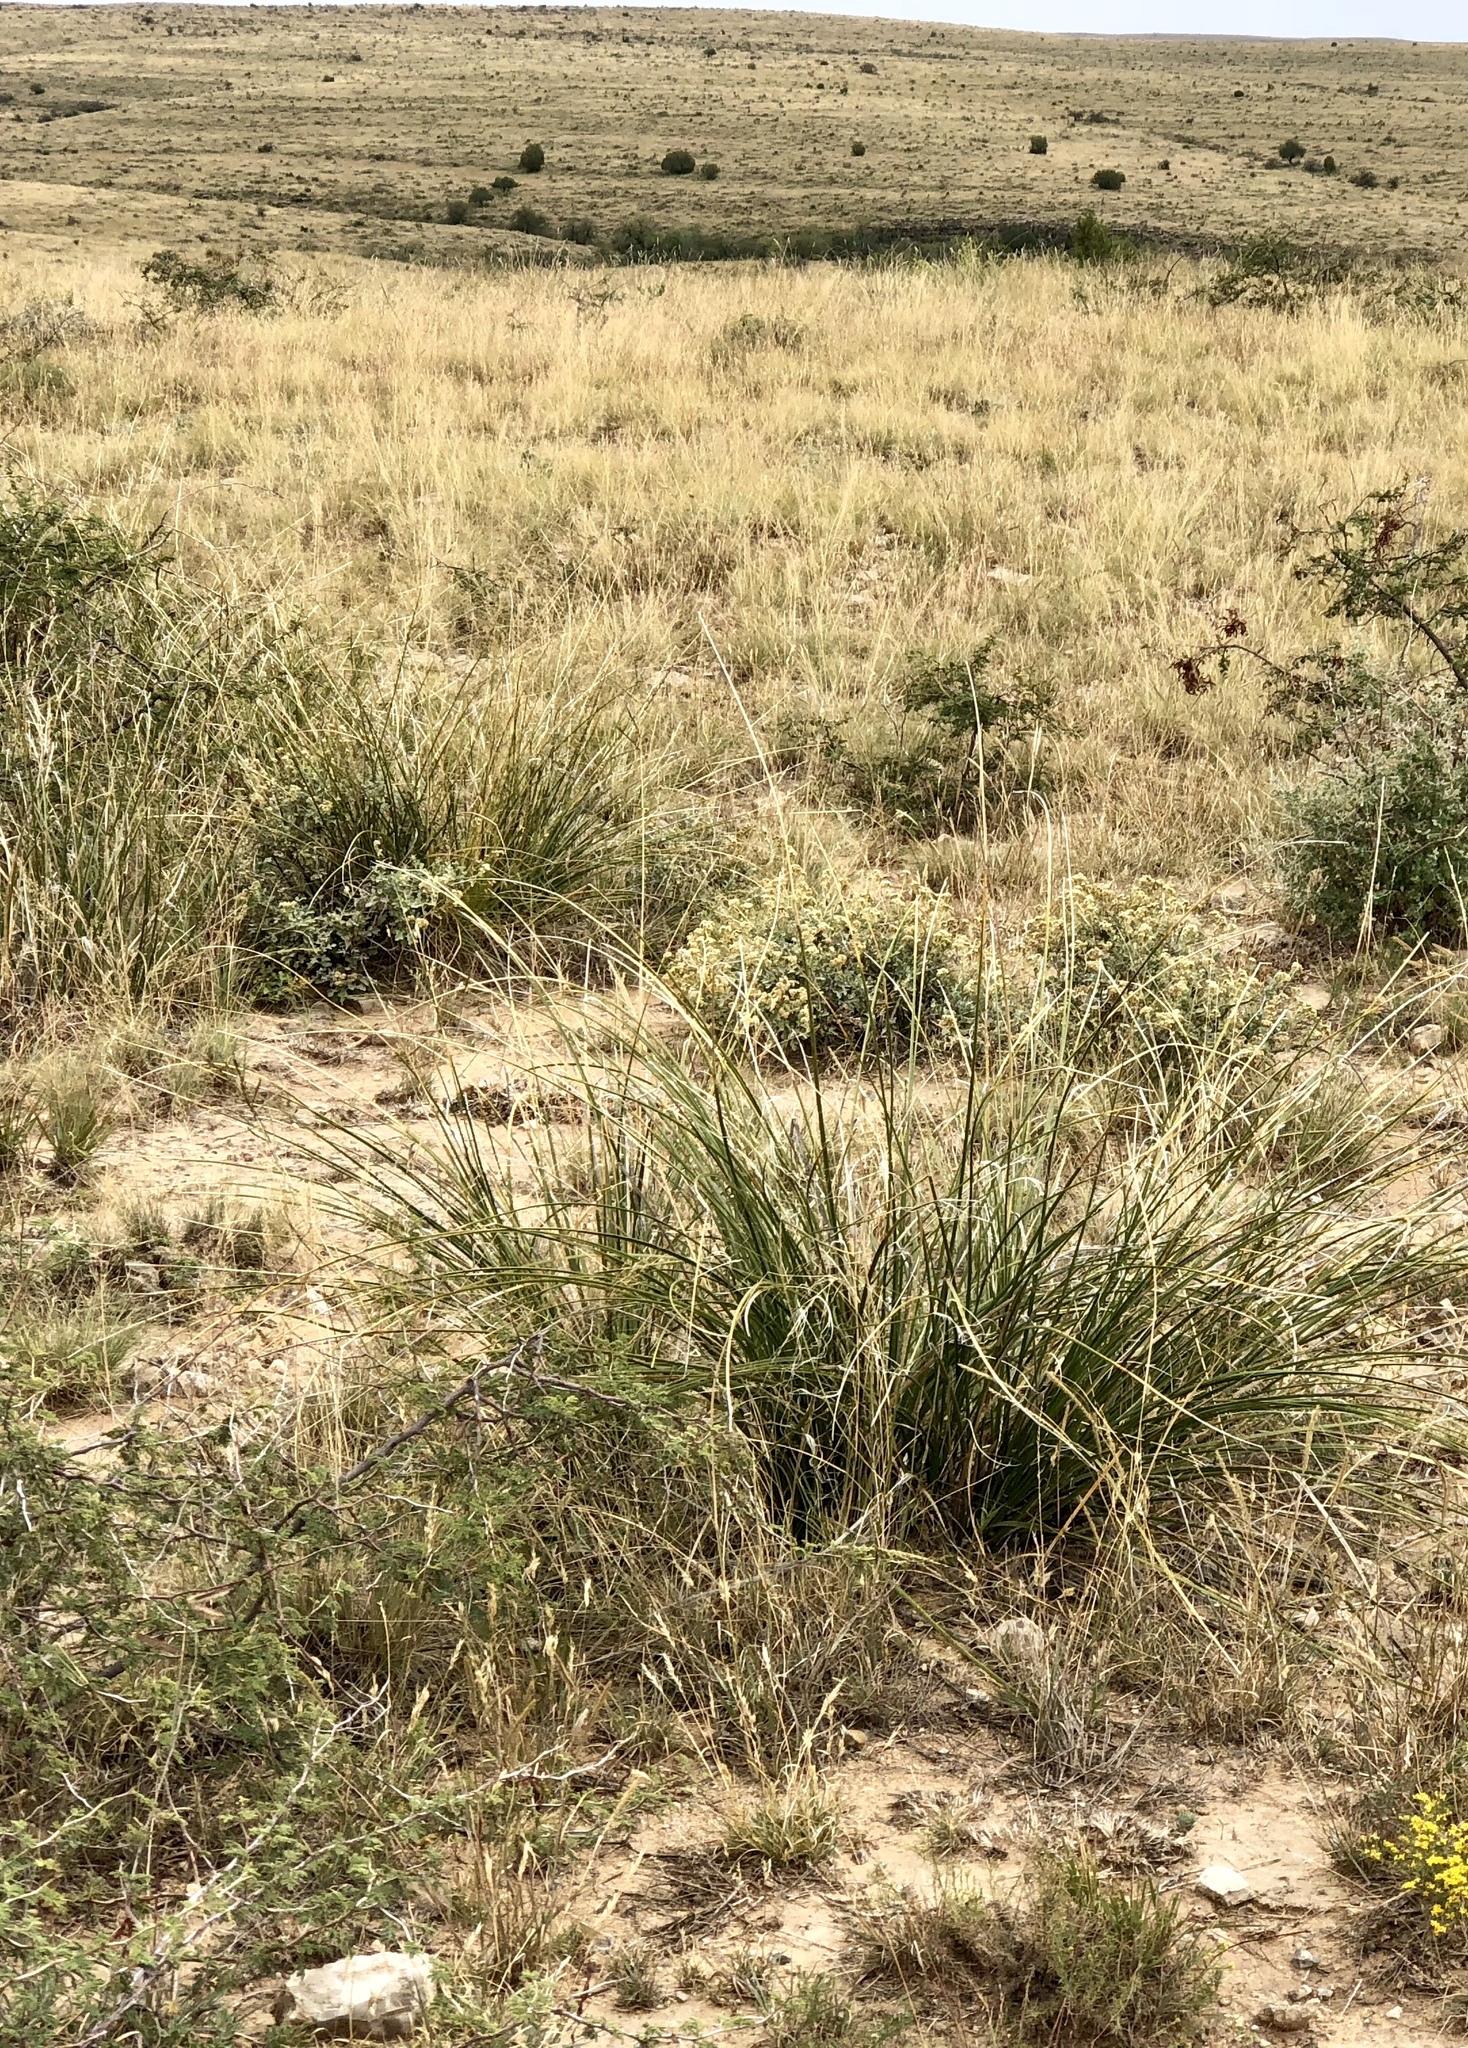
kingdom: Plantae
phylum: Tracheophyta
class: Liliopsida
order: Asparagales
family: Asparagaceae
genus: Nolina
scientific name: Nolina microcarpa
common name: Bear-grass
